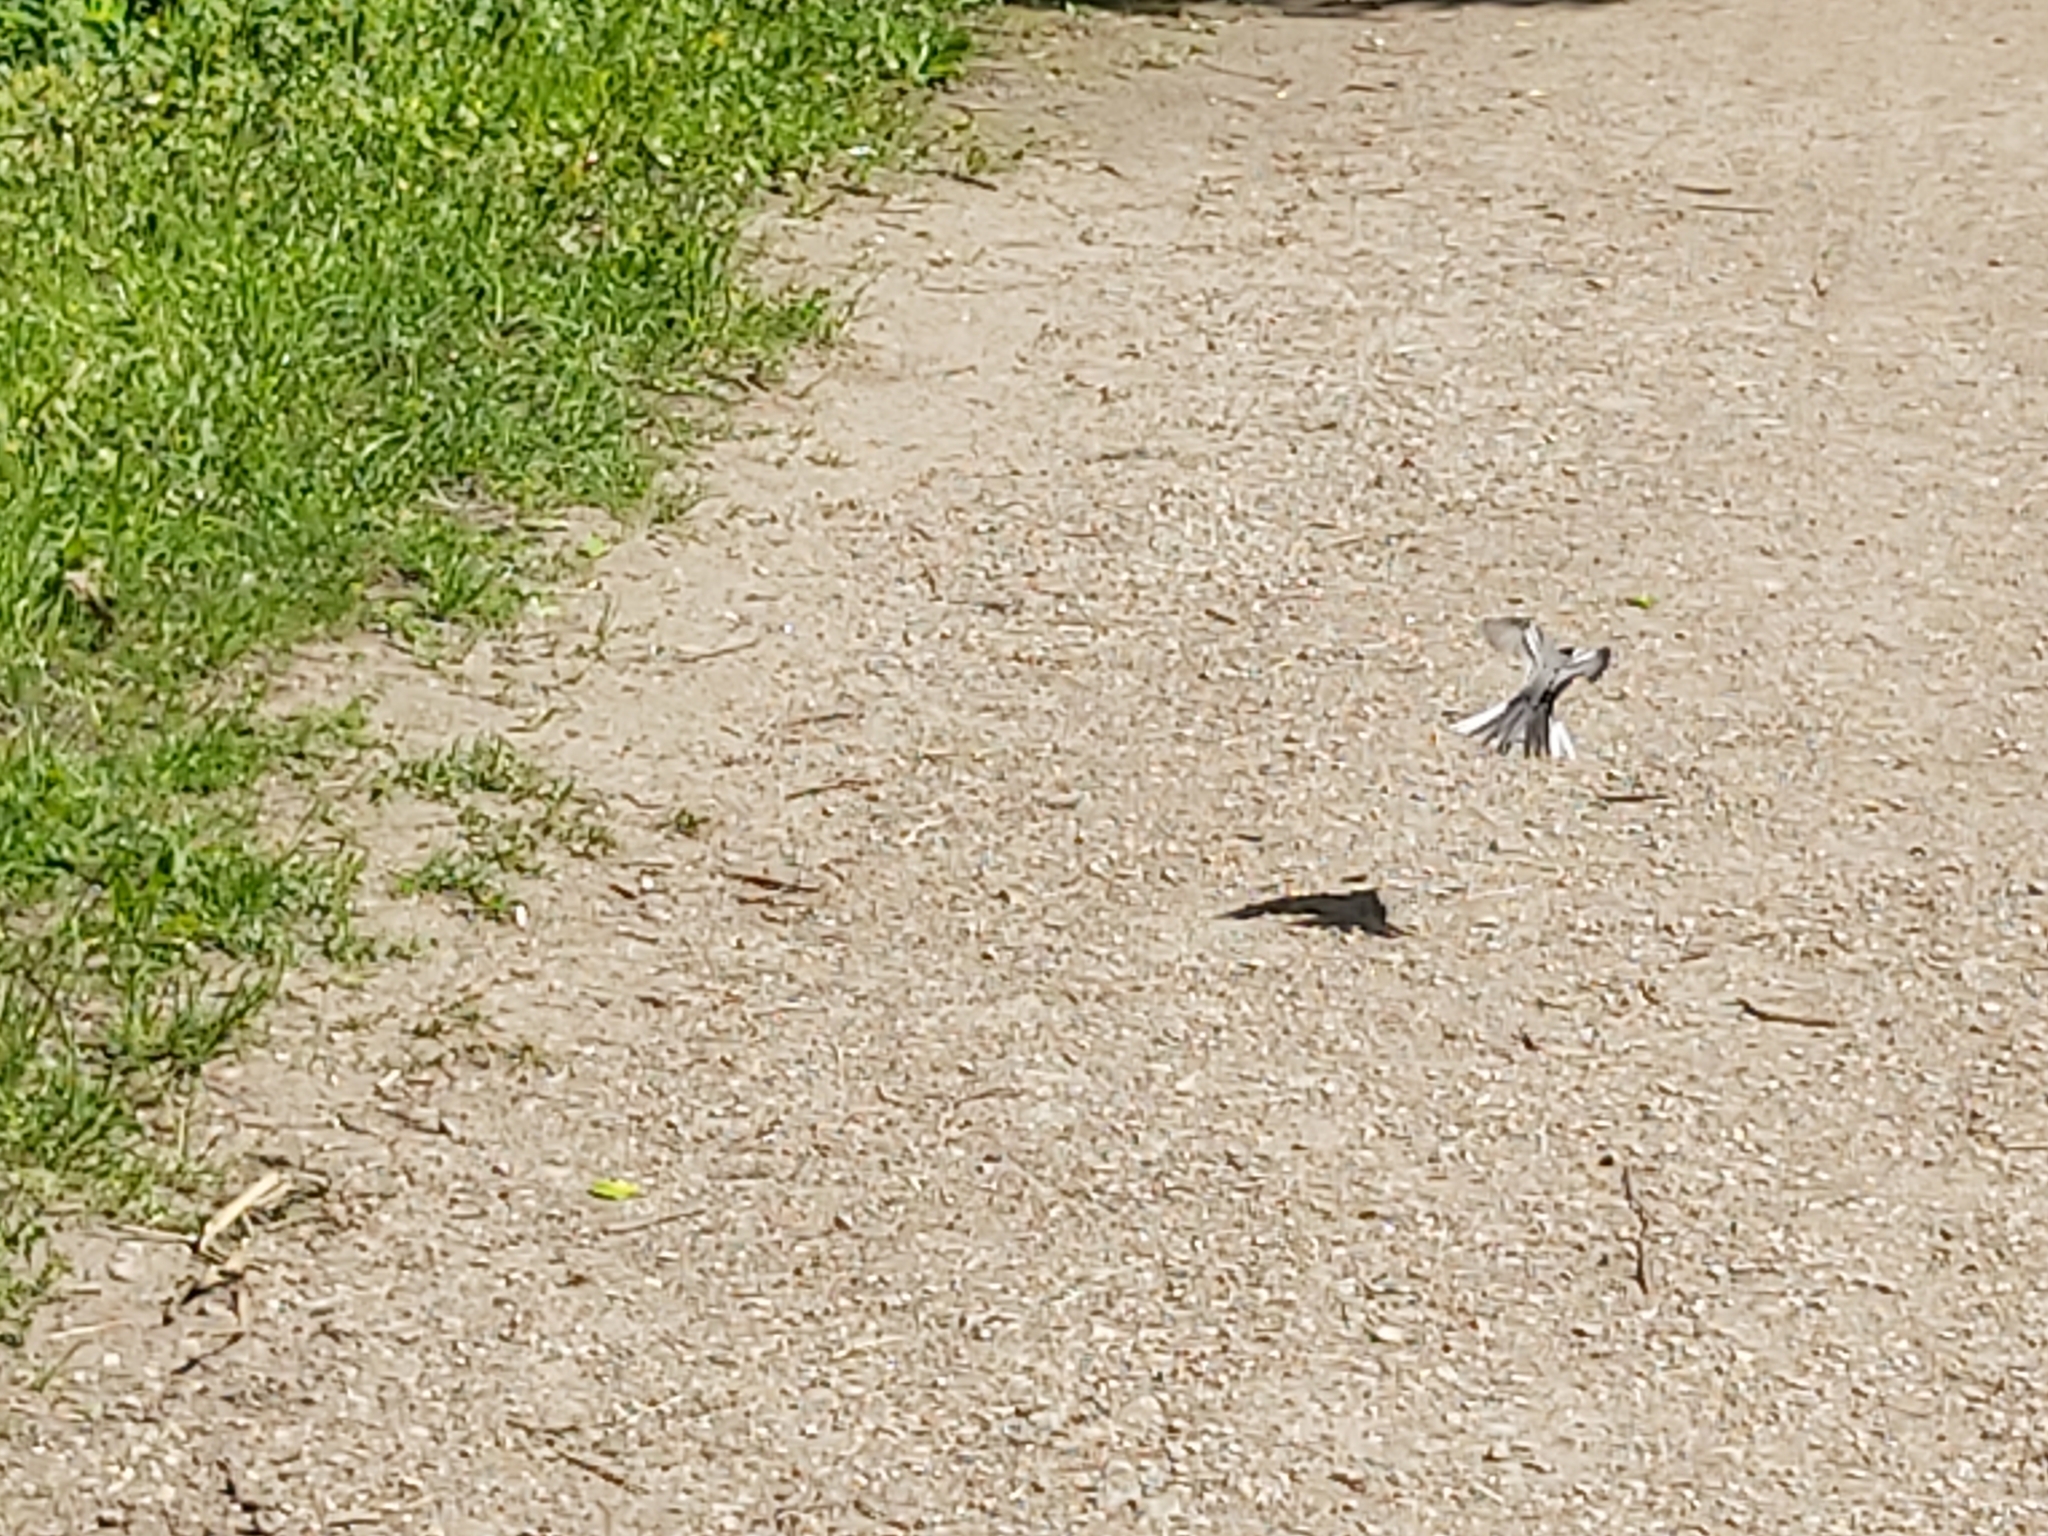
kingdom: Animalia
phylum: Chordata
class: Aves
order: Passeriformes
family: Motacillidae
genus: Motacilla
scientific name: Motacilla alba
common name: White wagtail
